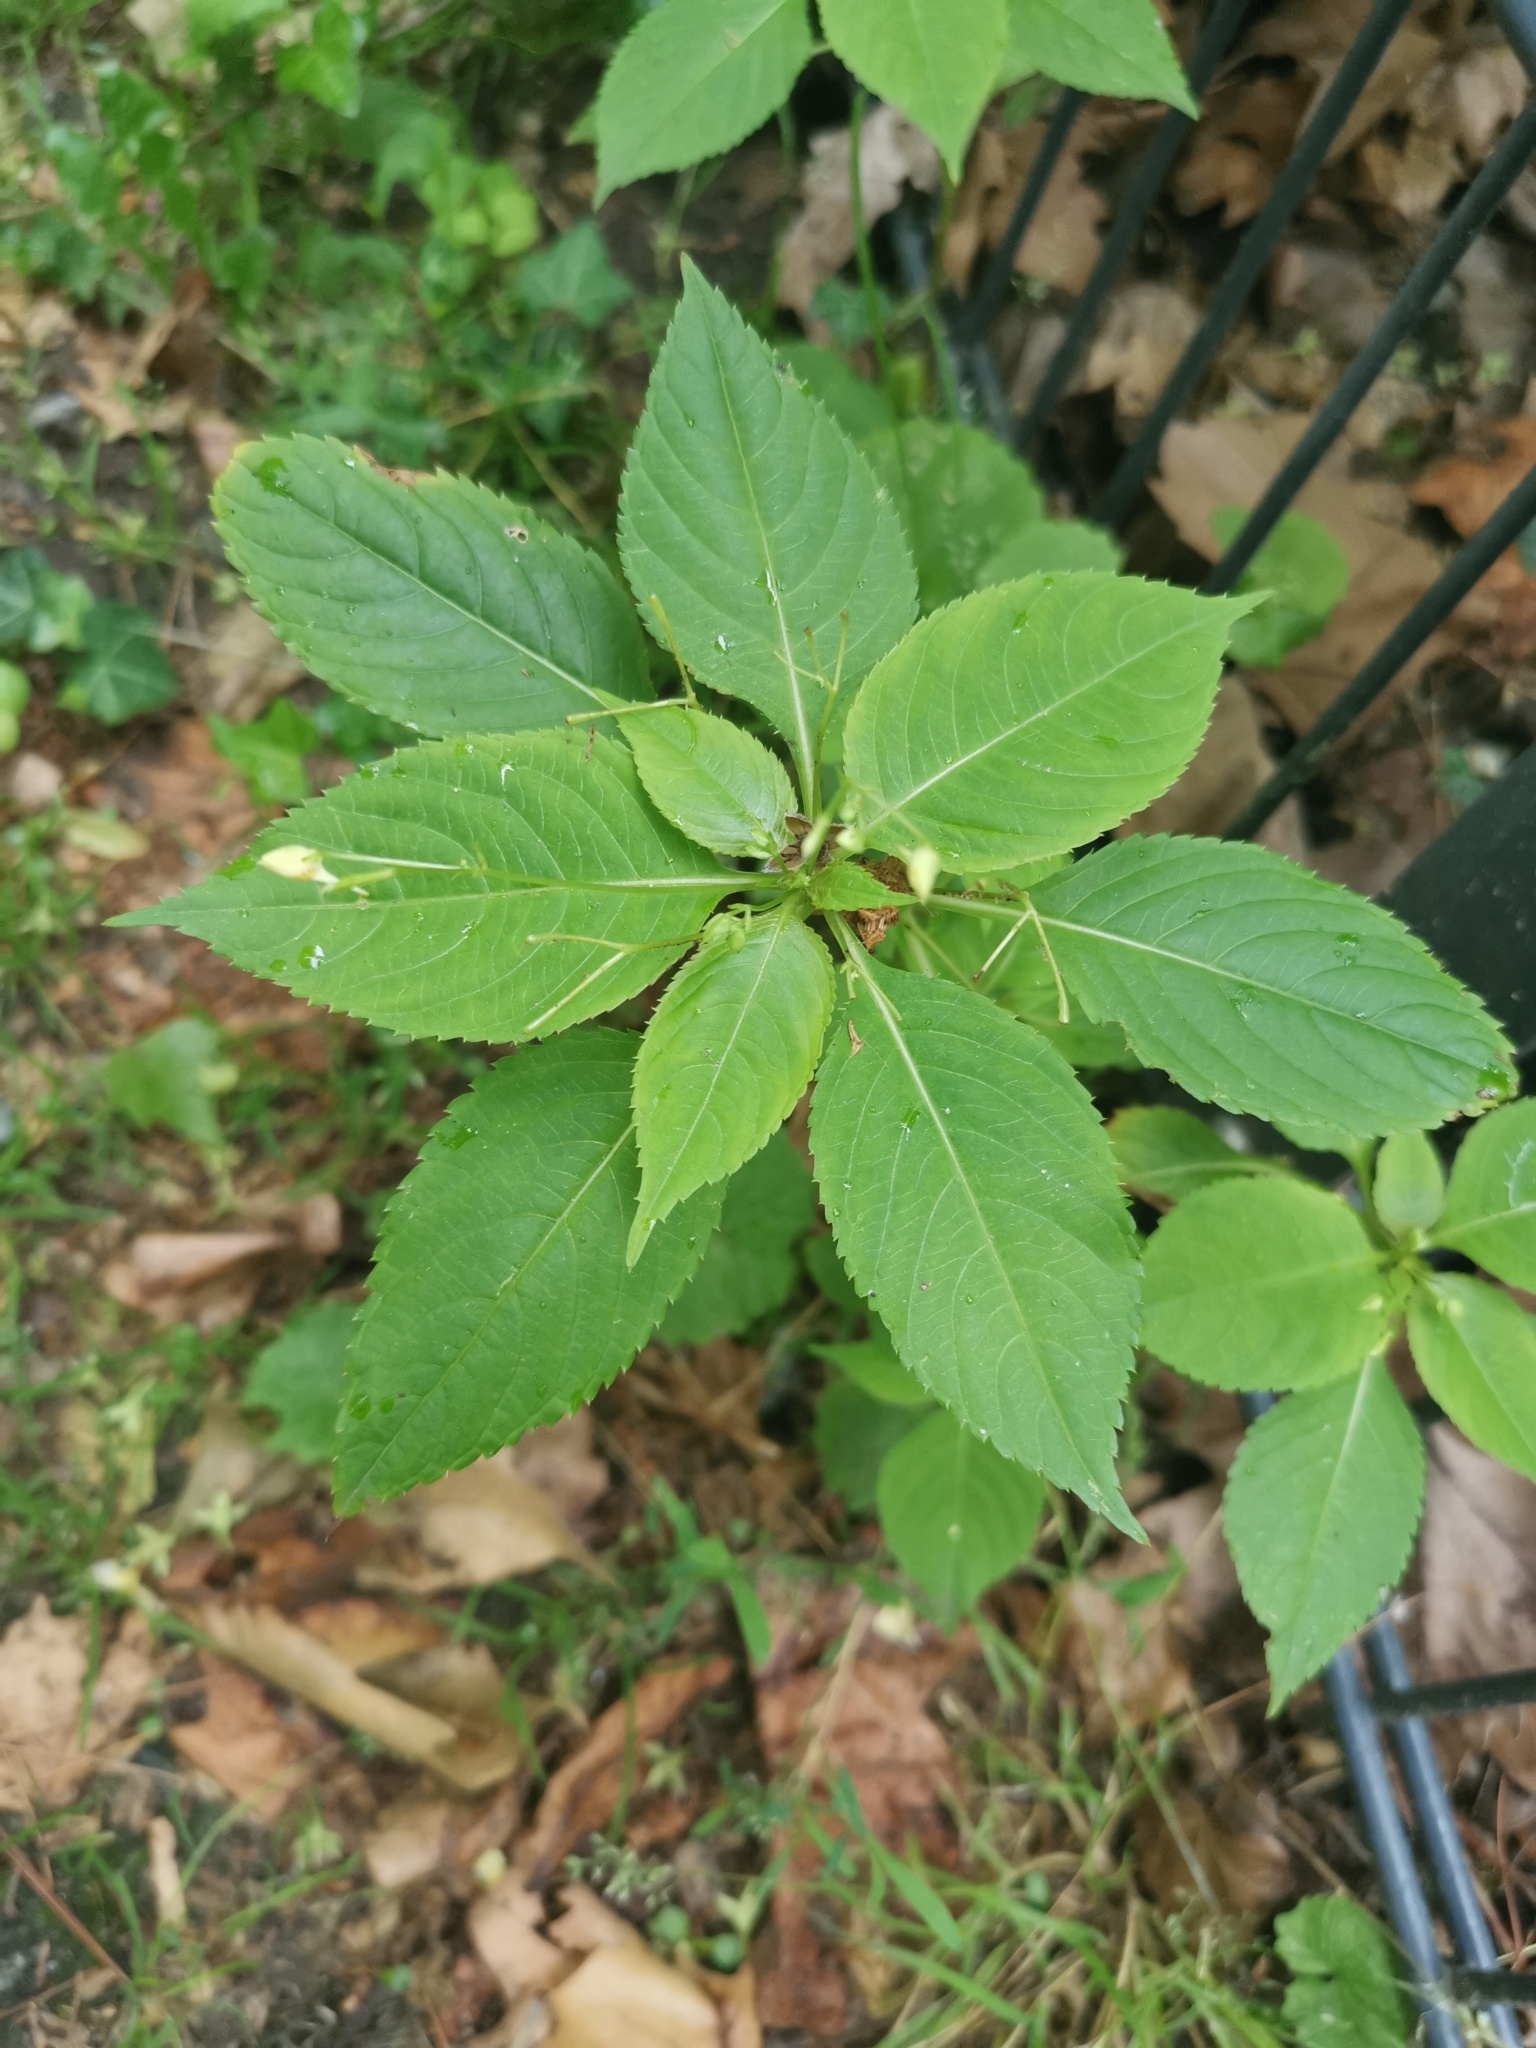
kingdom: Plantae
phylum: Tracheophyta
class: Magnoliopsida
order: Ericales
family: Balsaminaceae
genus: Impatiens
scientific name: Impatiens parviflora
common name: Small balsam
